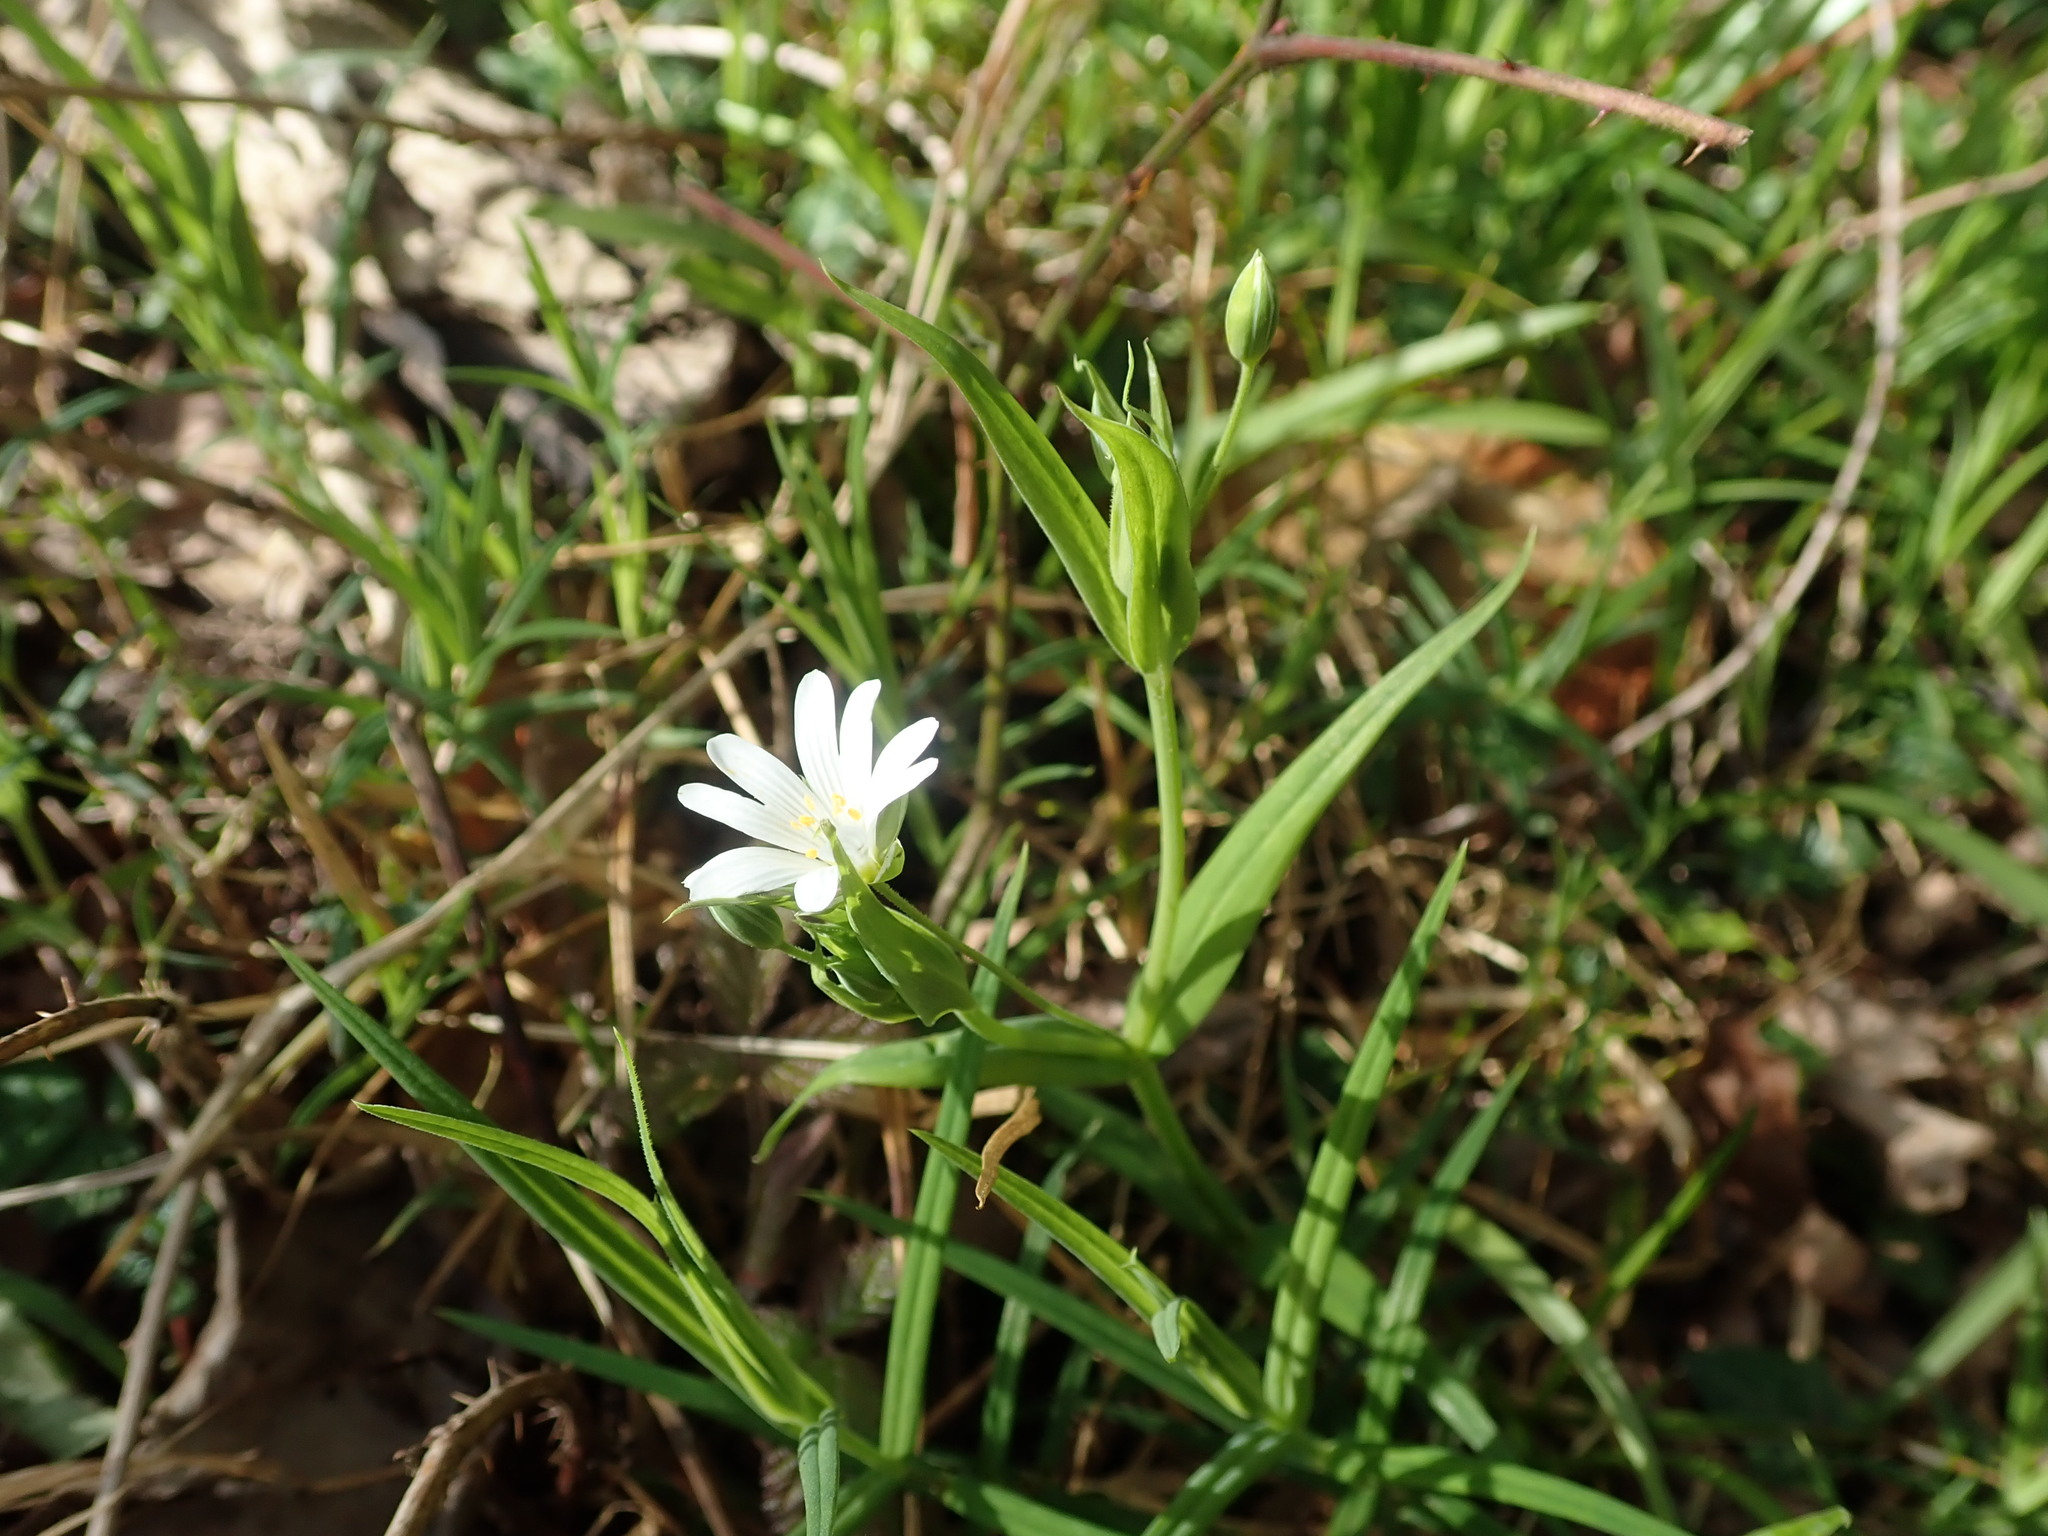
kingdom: Plantae
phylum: Tracheophyta
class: Magnoliopsida
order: Caryophyllales
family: Caryophyllaceae
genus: Rabelera
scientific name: Rabelera holostea
